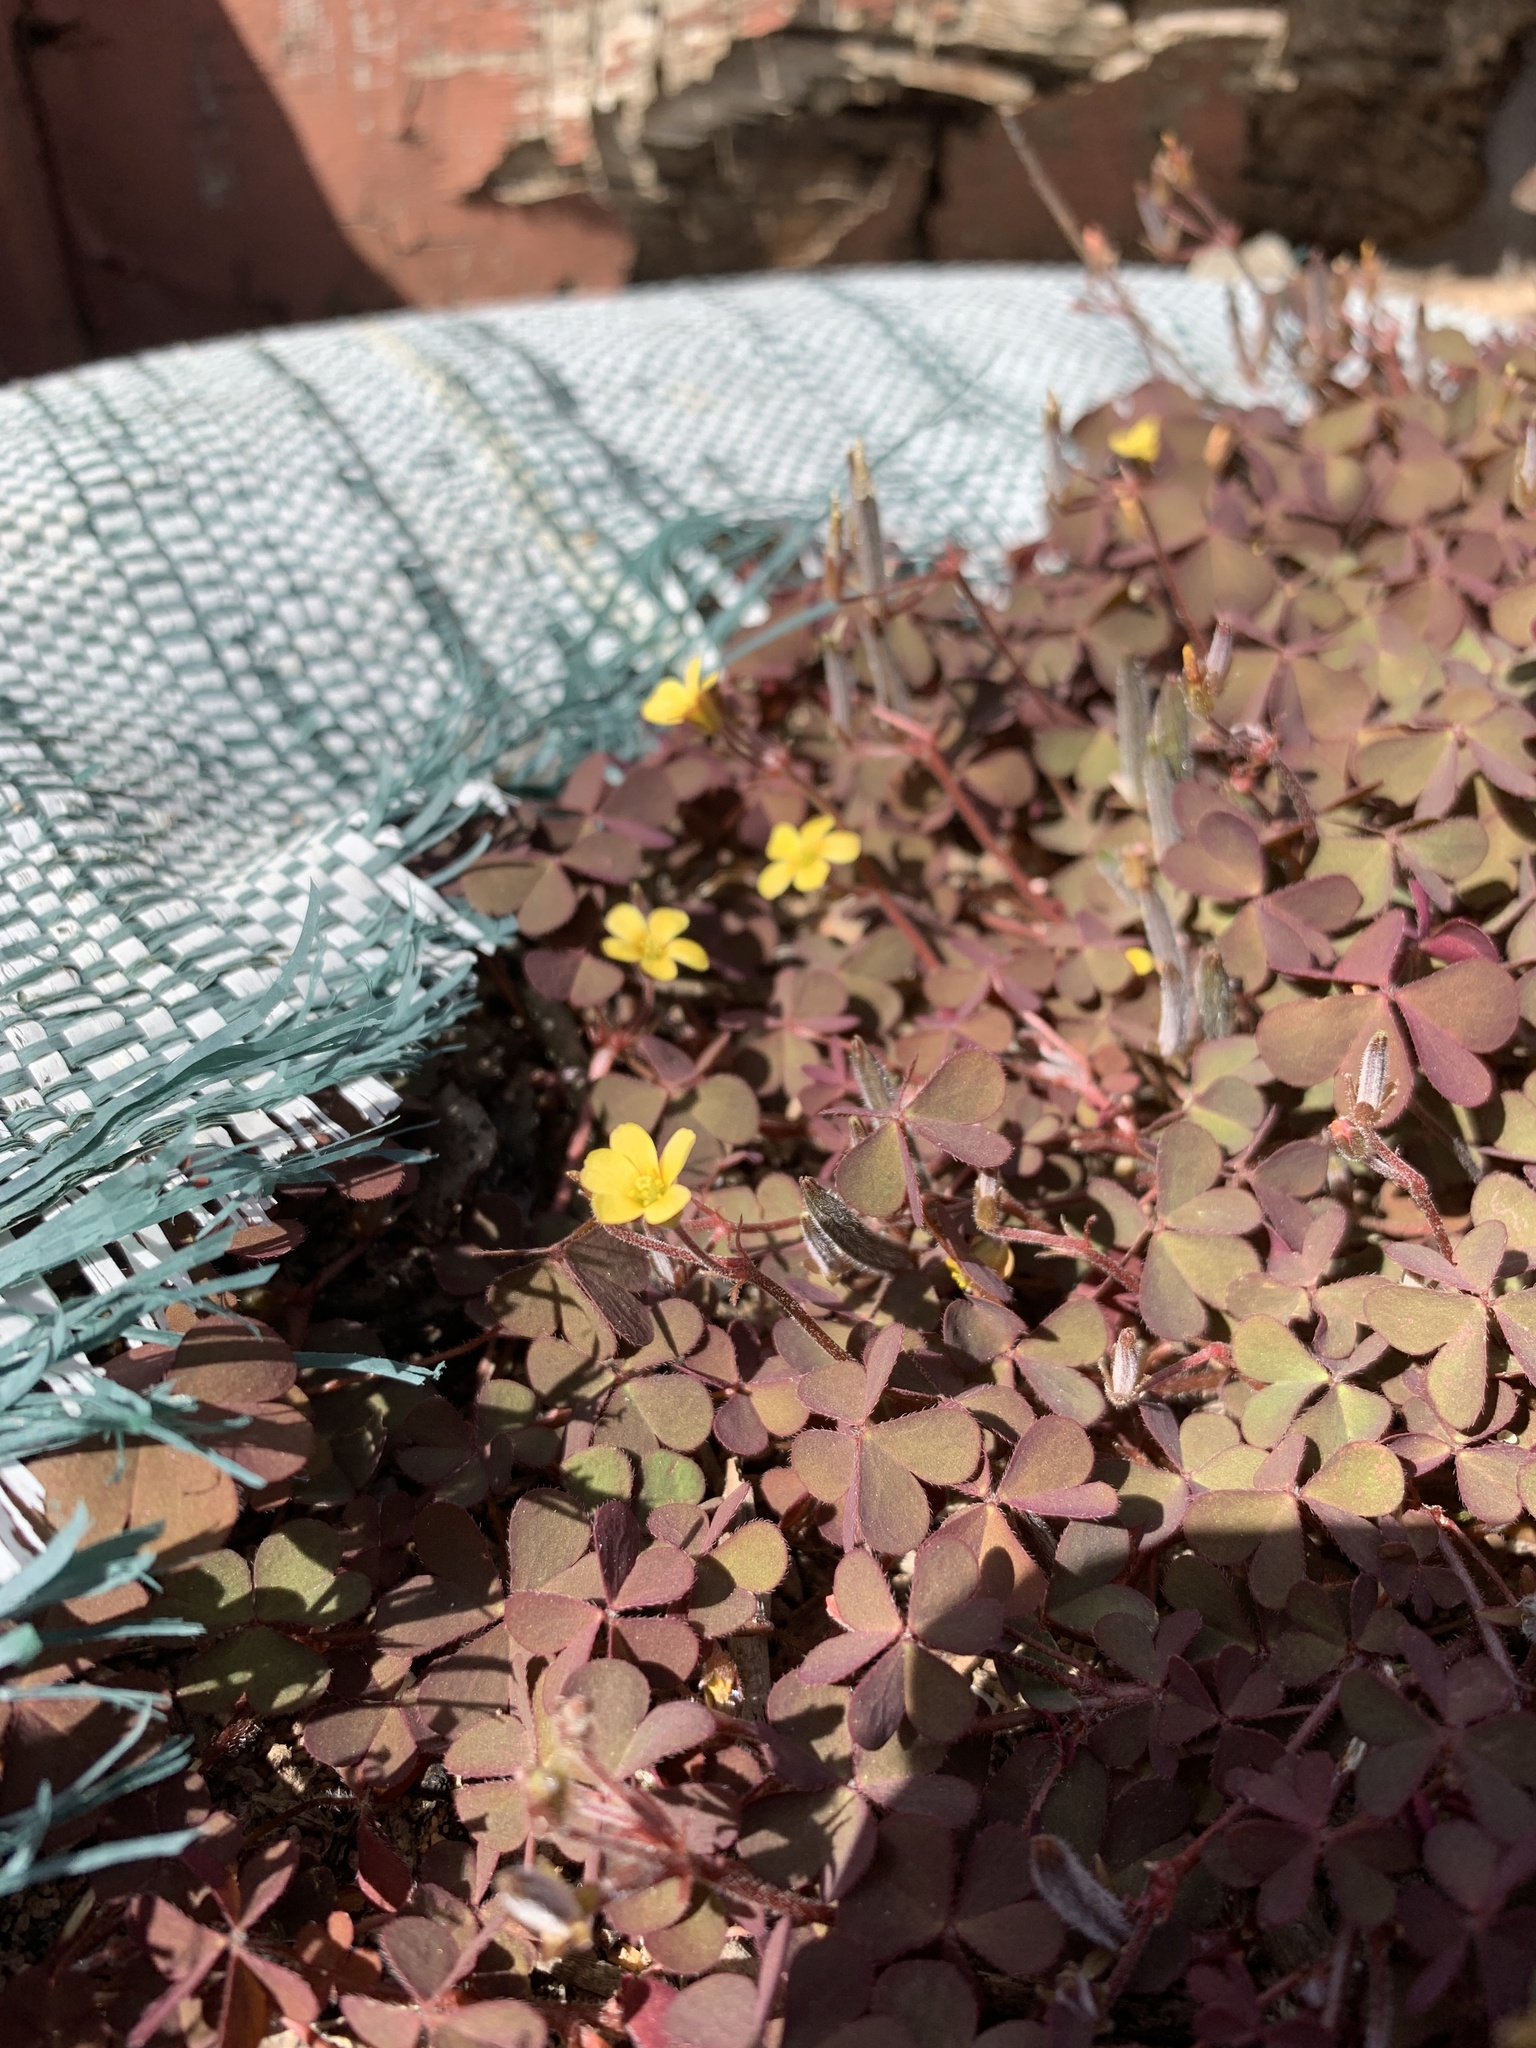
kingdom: Plantae
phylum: Tracheophyta
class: Magnoliopsida
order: Oxalidales
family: Oxalidaceae
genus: Oxalis
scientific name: Oxalis corniculata
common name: Procumbent yellow-sorrel
